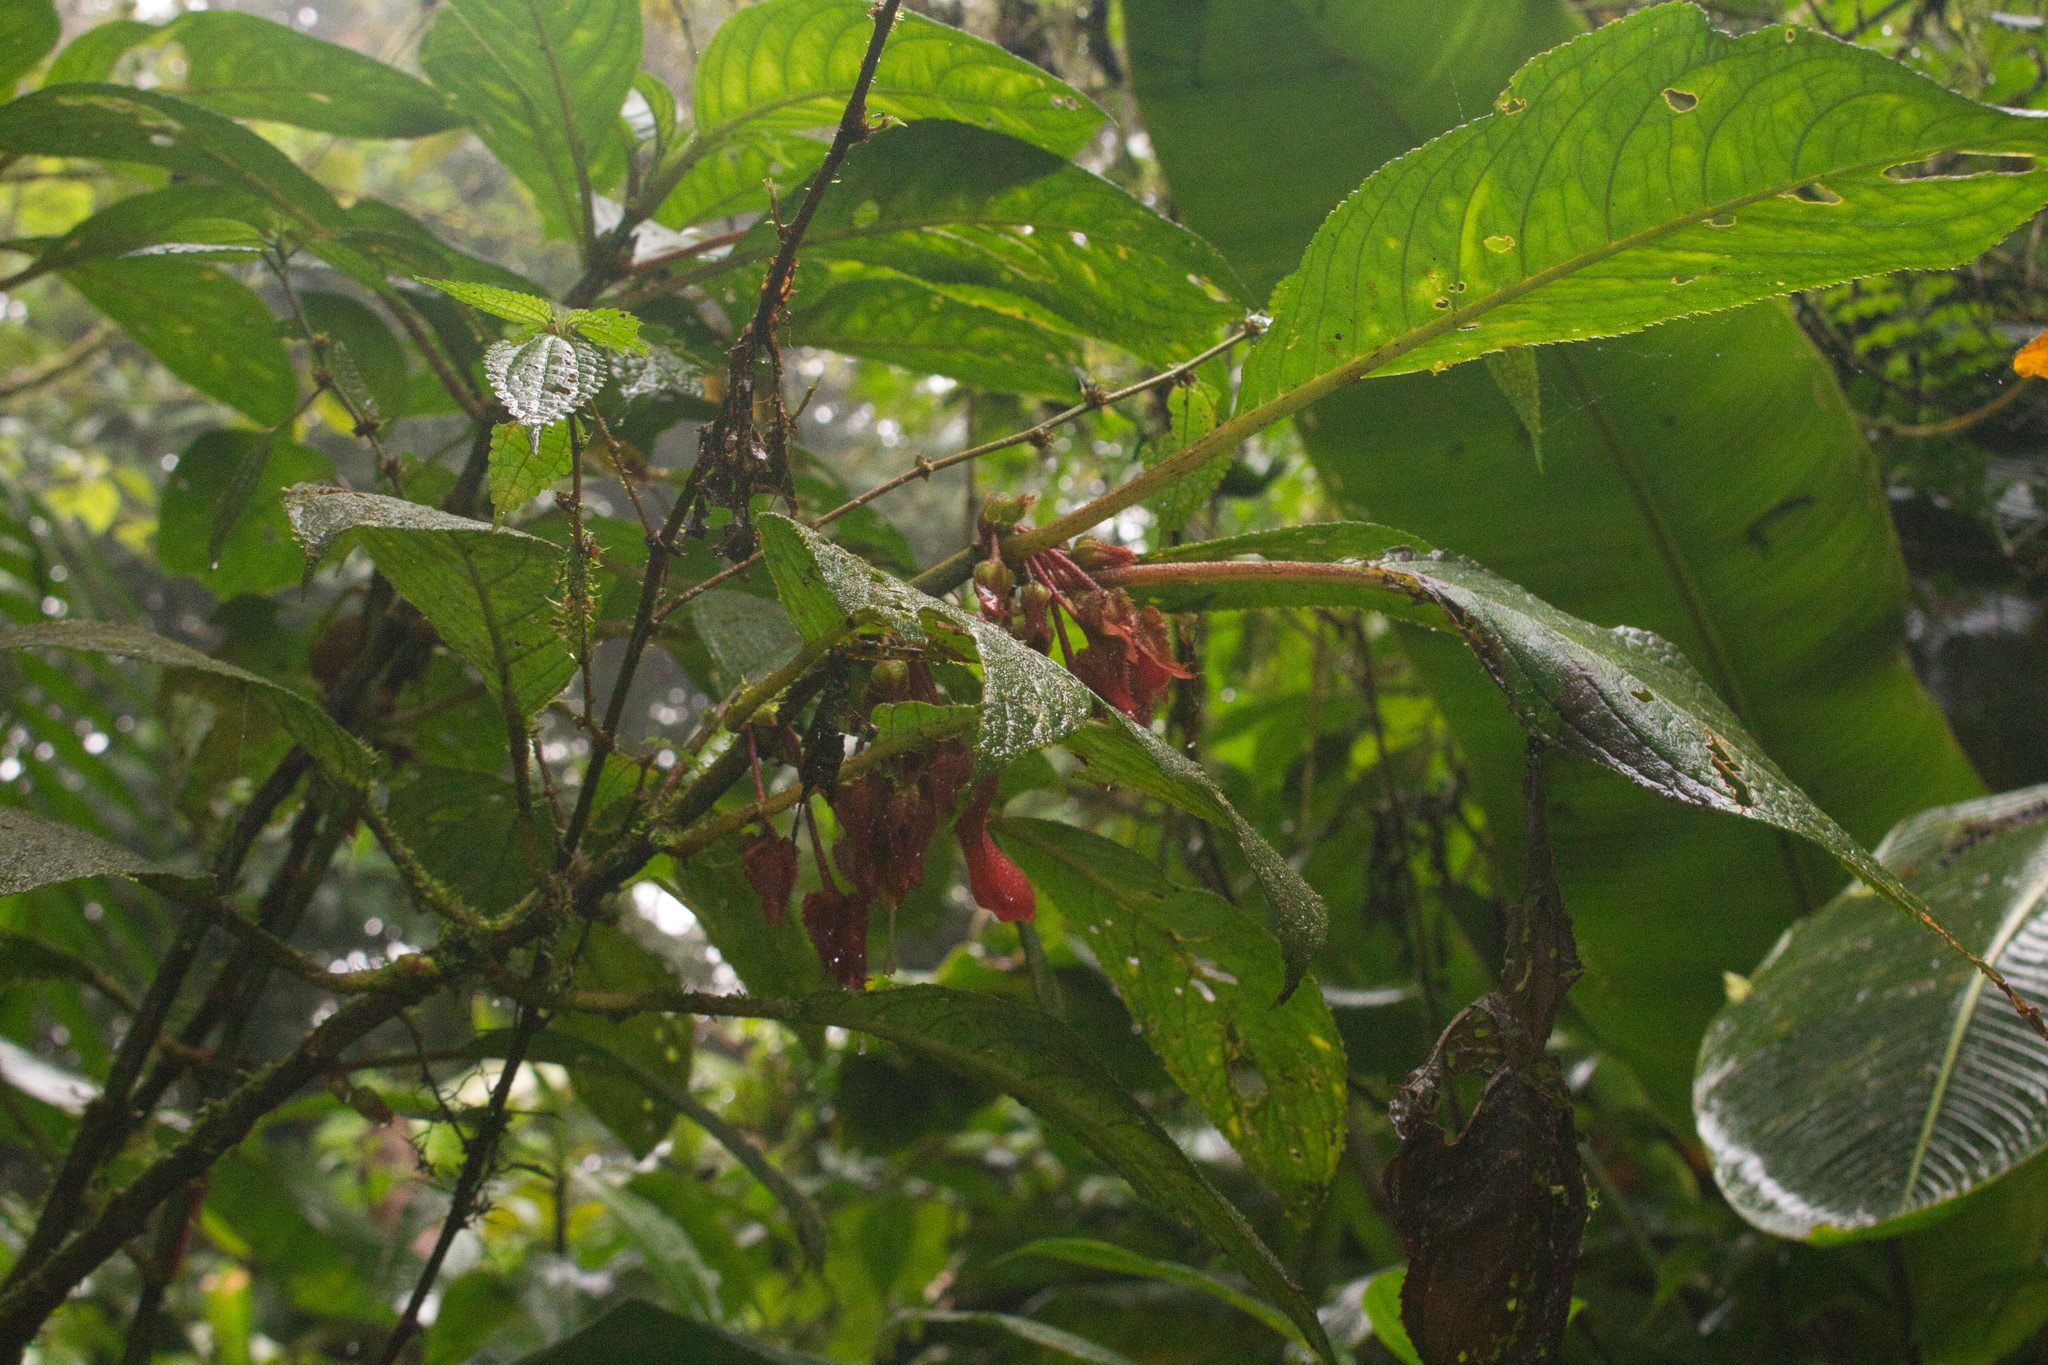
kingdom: Plantae
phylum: Tracheophyta
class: Magnoliopsida
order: Lamiales
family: Gesneriaceae
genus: Glossoloma
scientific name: Glossoloma tetragonum
